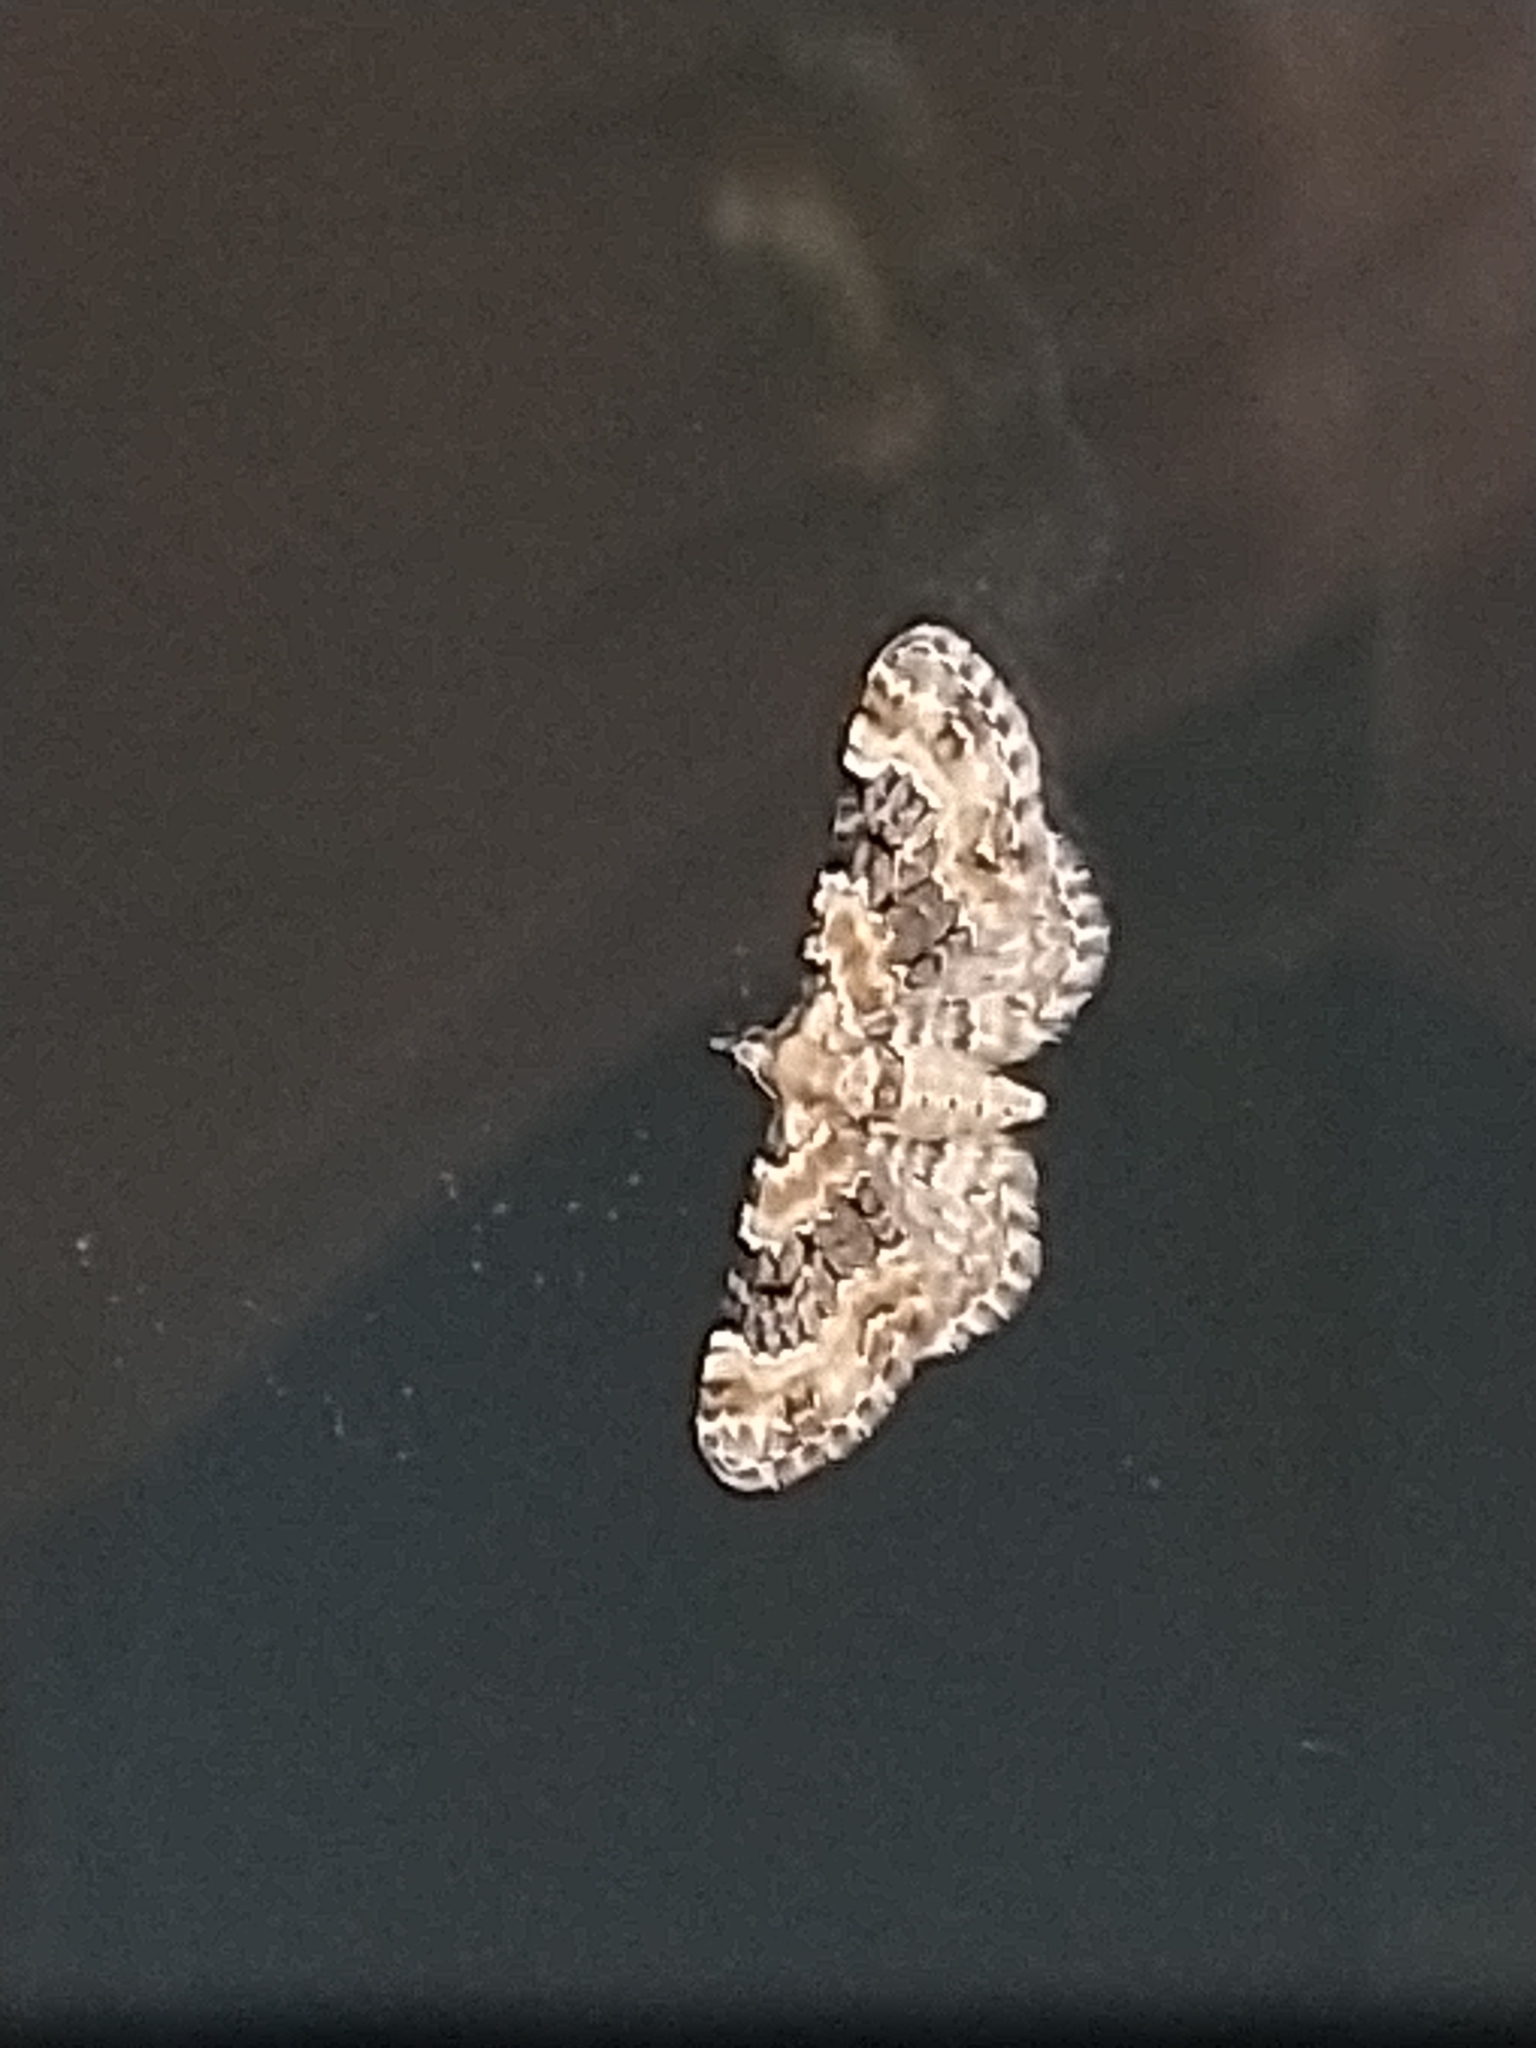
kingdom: Animalia
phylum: Arthropoda
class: Insecta
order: Lepidoptera
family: Geometridae
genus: Eupithecia
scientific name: Eupithecia pulchellata
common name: Foxglove pug
